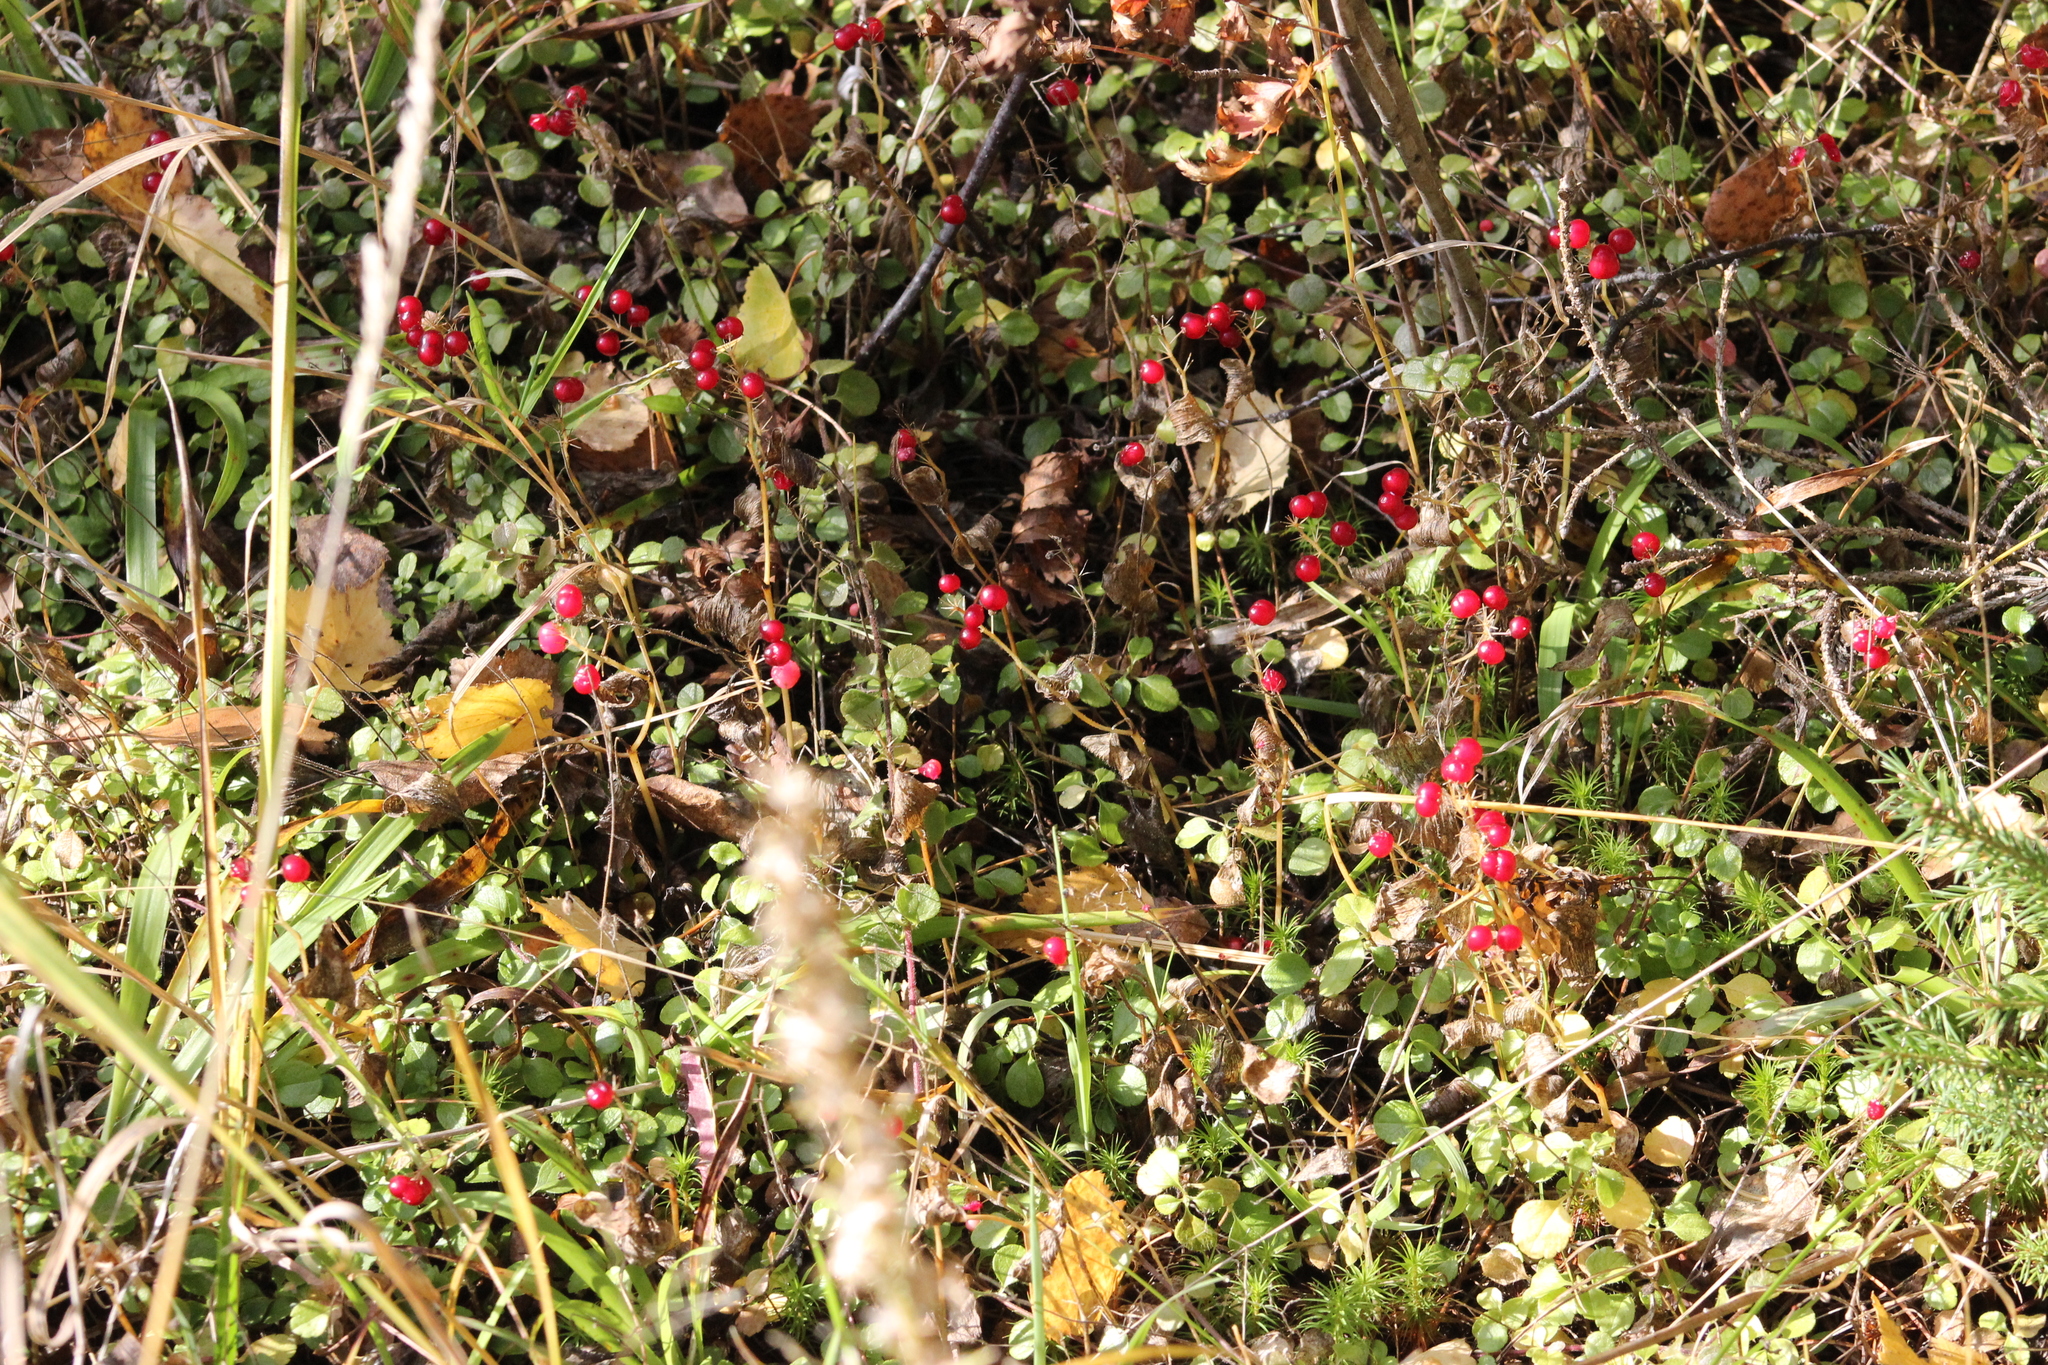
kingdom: Plantae
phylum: Tracheophyta
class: Liliopsida
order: Asparagales
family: Asparagaceae
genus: Maianthemum
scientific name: Maianthemum bifolium
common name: May lily
